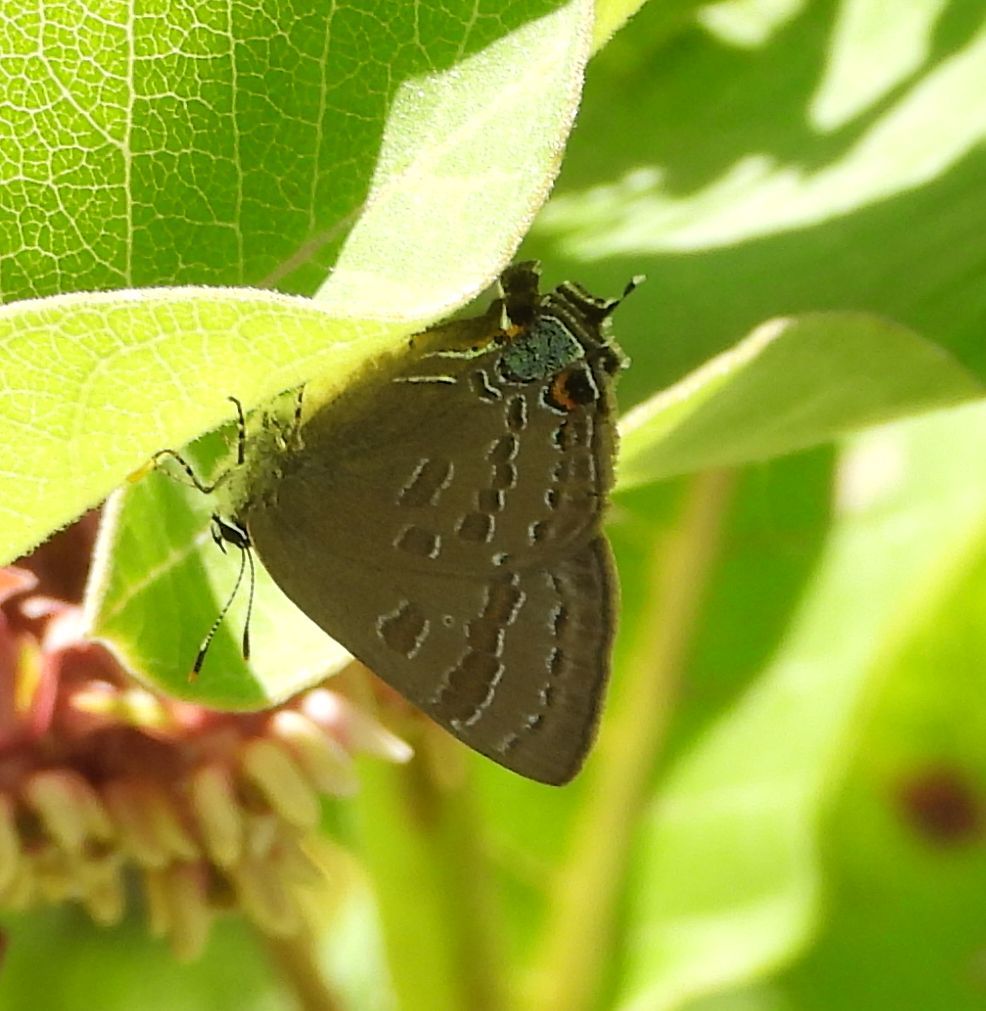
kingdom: Animalia
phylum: Arthropoda
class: Insecta
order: Lepidoptera
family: Lycaenidae
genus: Strymon
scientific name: Strymon caryaevorus
